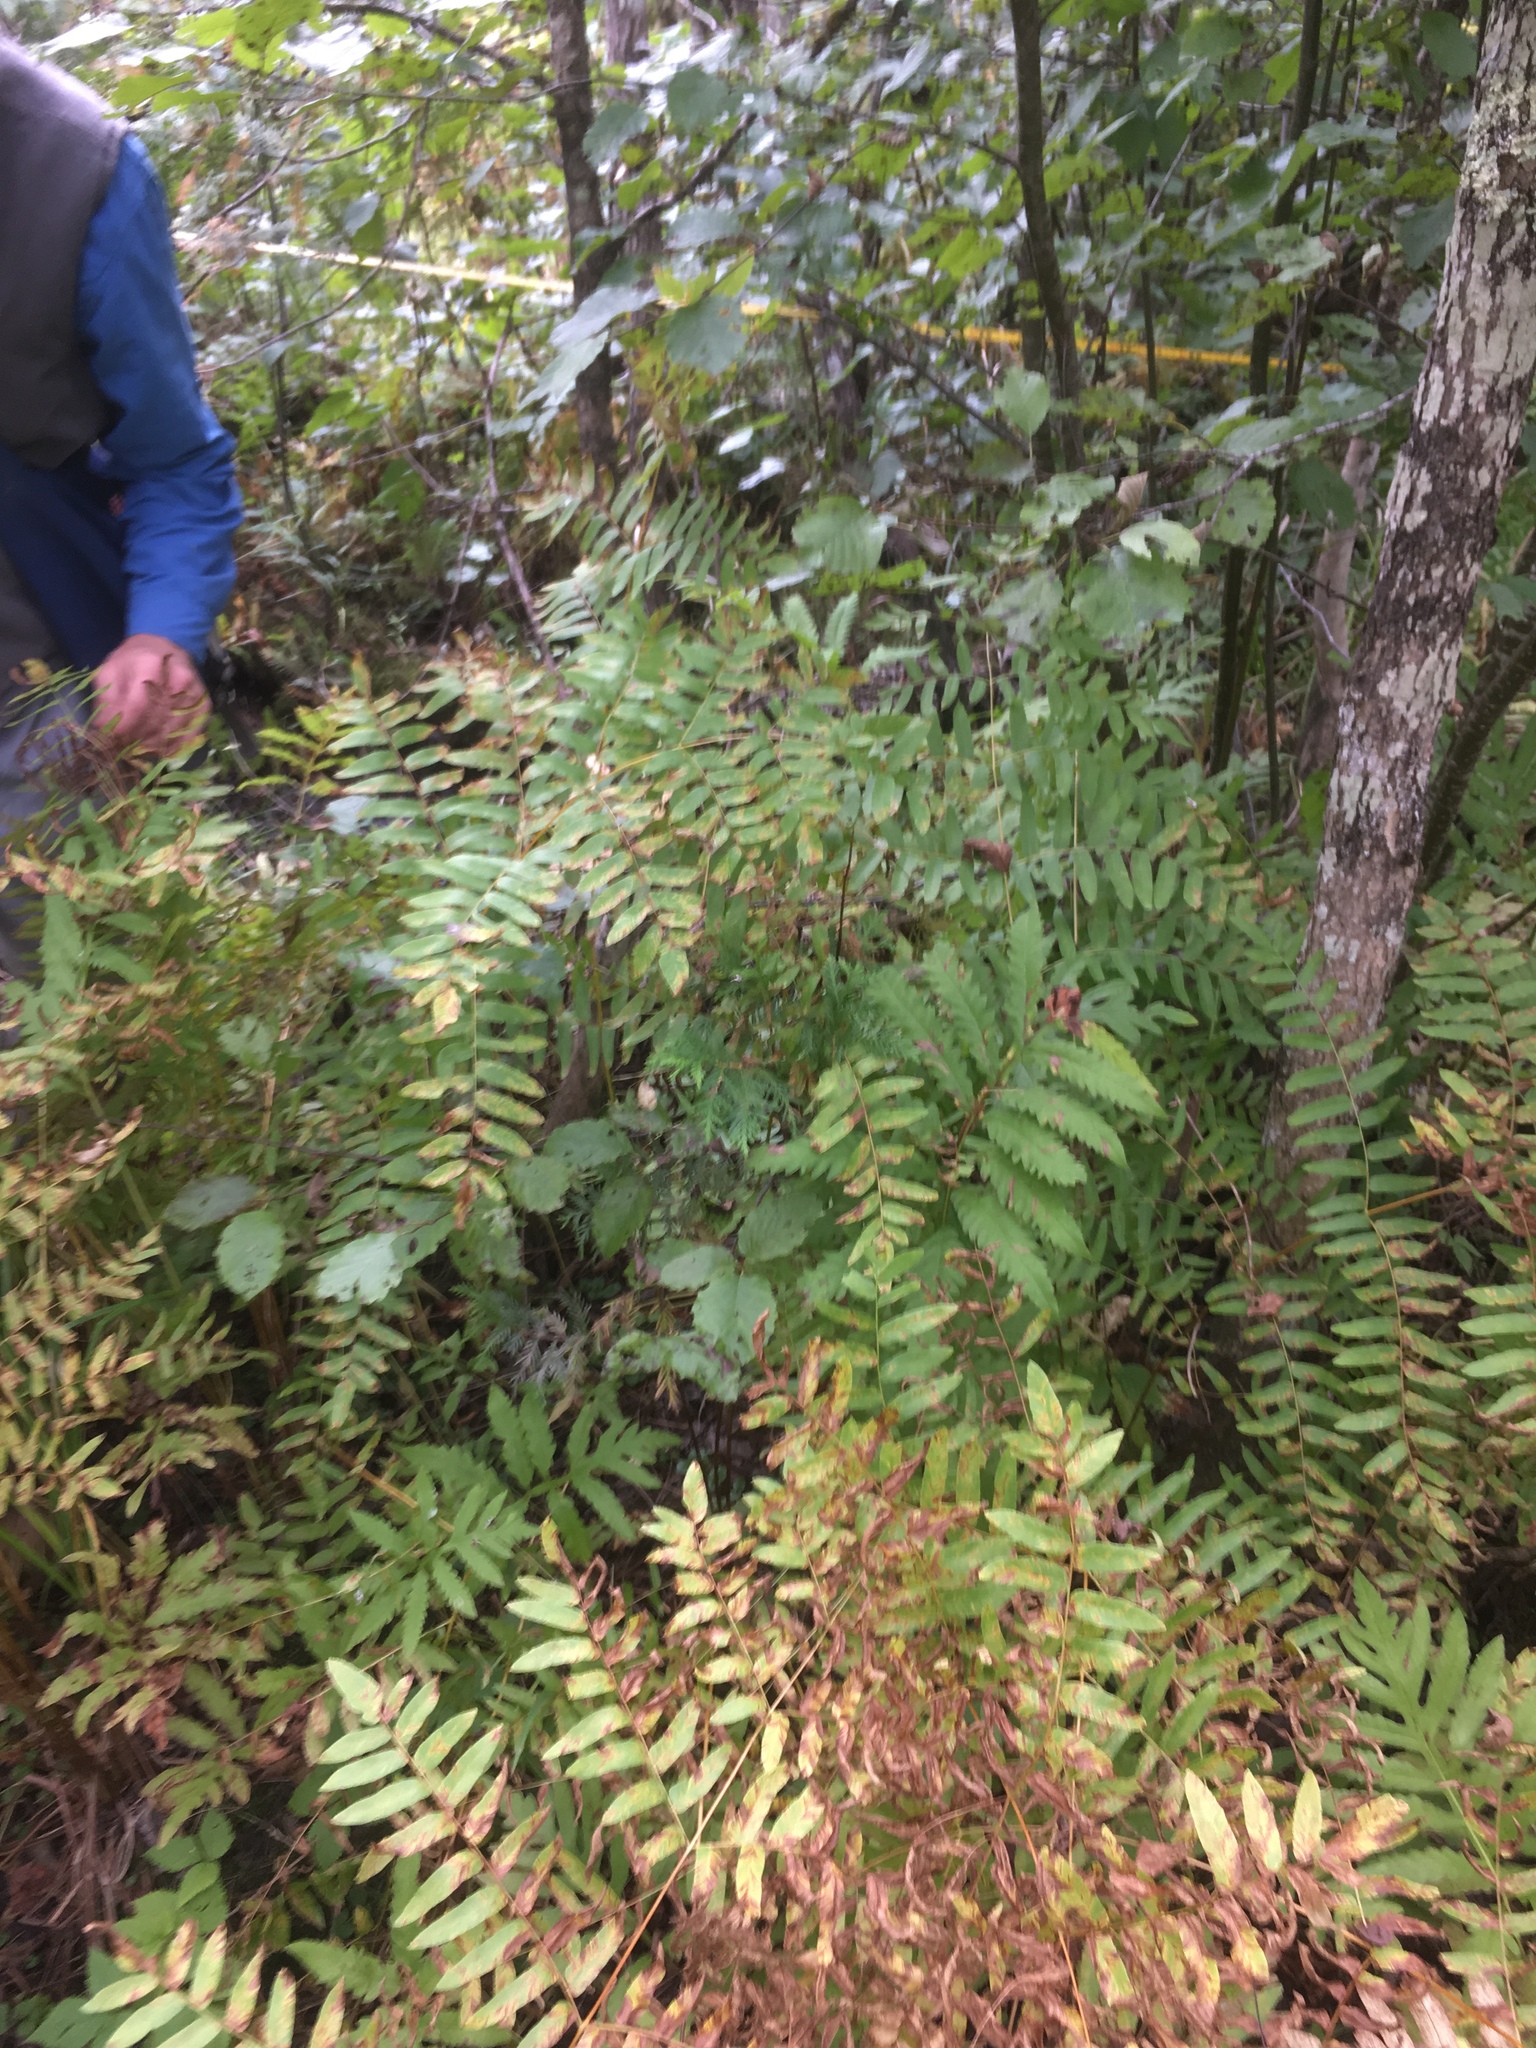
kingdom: Plantae
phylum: Tracheophyta
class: Polypodiopsida
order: Osmundales
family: Osmundaceae
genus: Osmunda
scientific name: Osmunda spectabilis
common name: American royal fern
